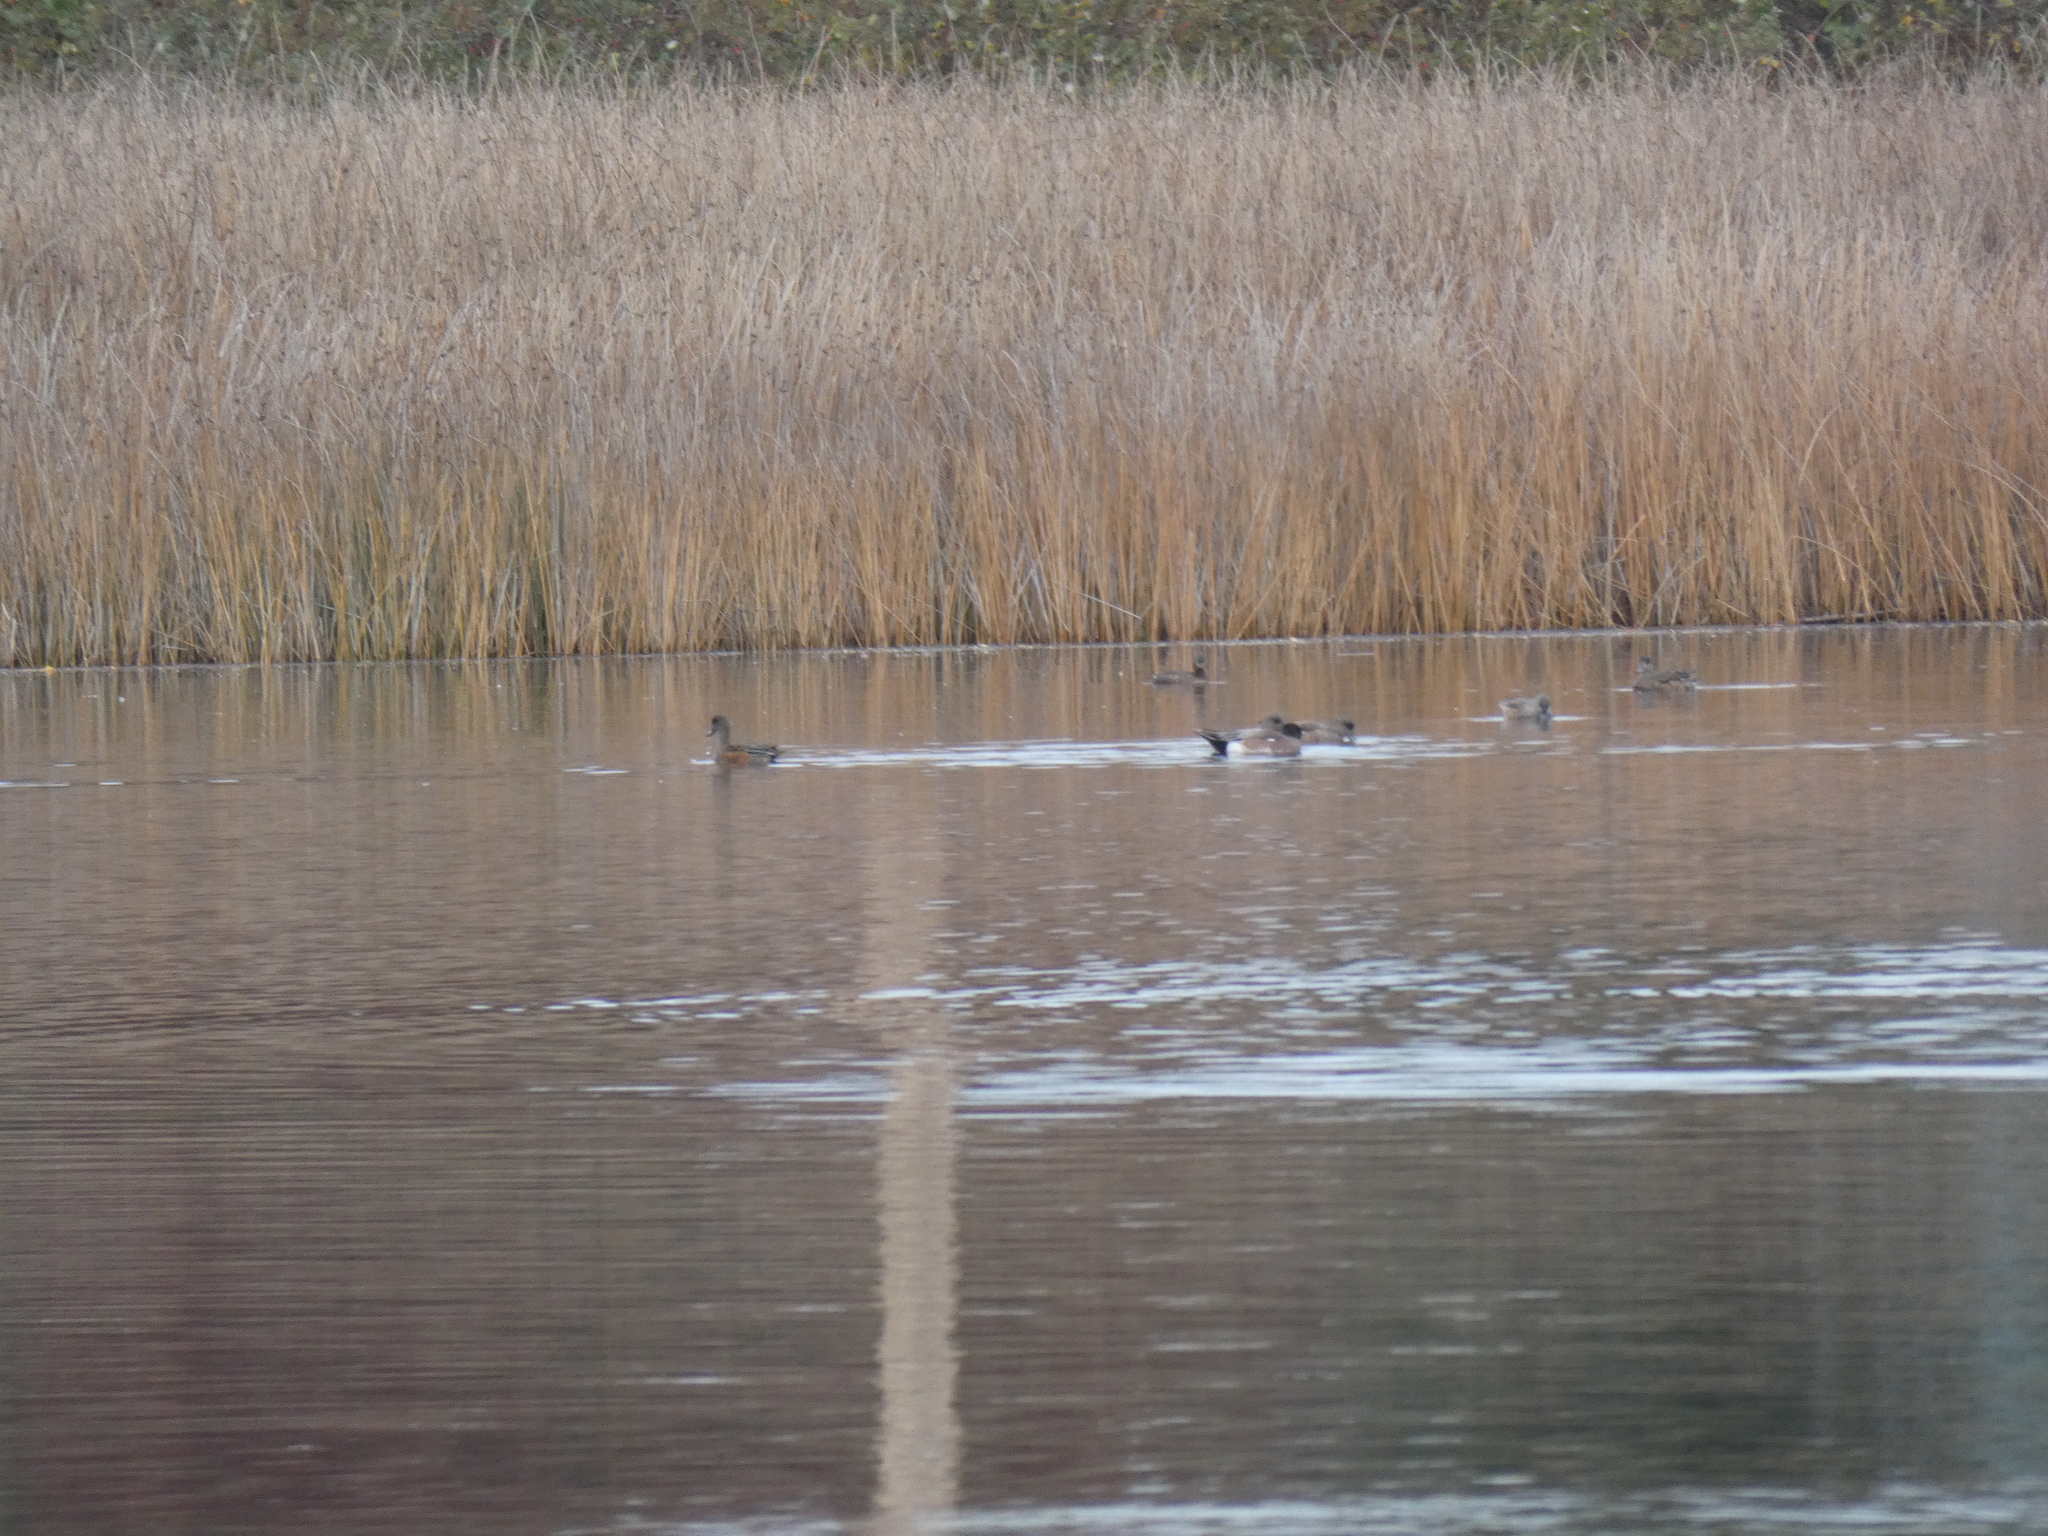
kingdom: Animalia
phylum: Chordata
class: Aves
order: Anseriformes
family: Anatidae
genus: Mareca
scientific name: Mareca americana
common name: American wigeon
